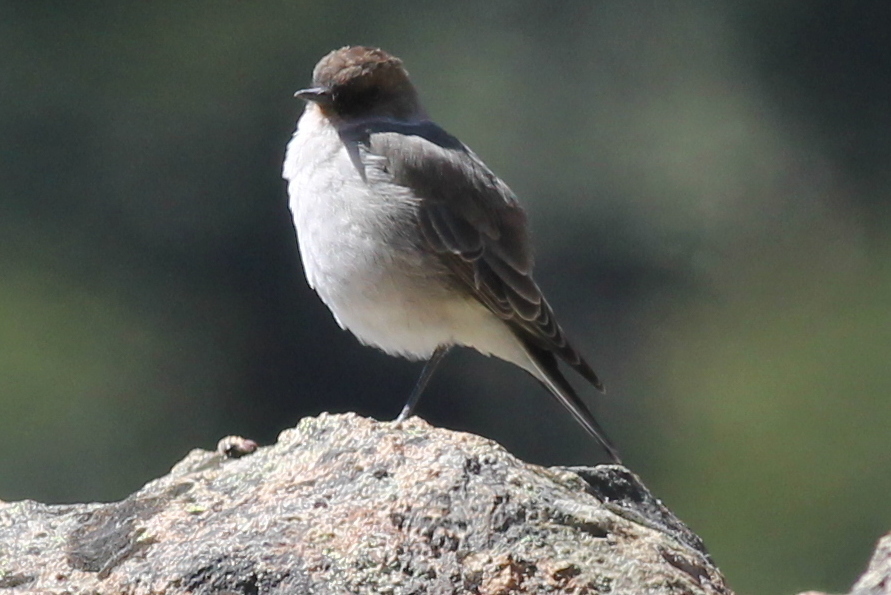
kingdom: Animalia
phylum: Chordata
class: Aves
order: Passeriformes
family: Tyrannidae
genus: Muscisaxicola
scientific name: Muscisaxicola maclovianus
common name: Dark-faced ground tyrant
